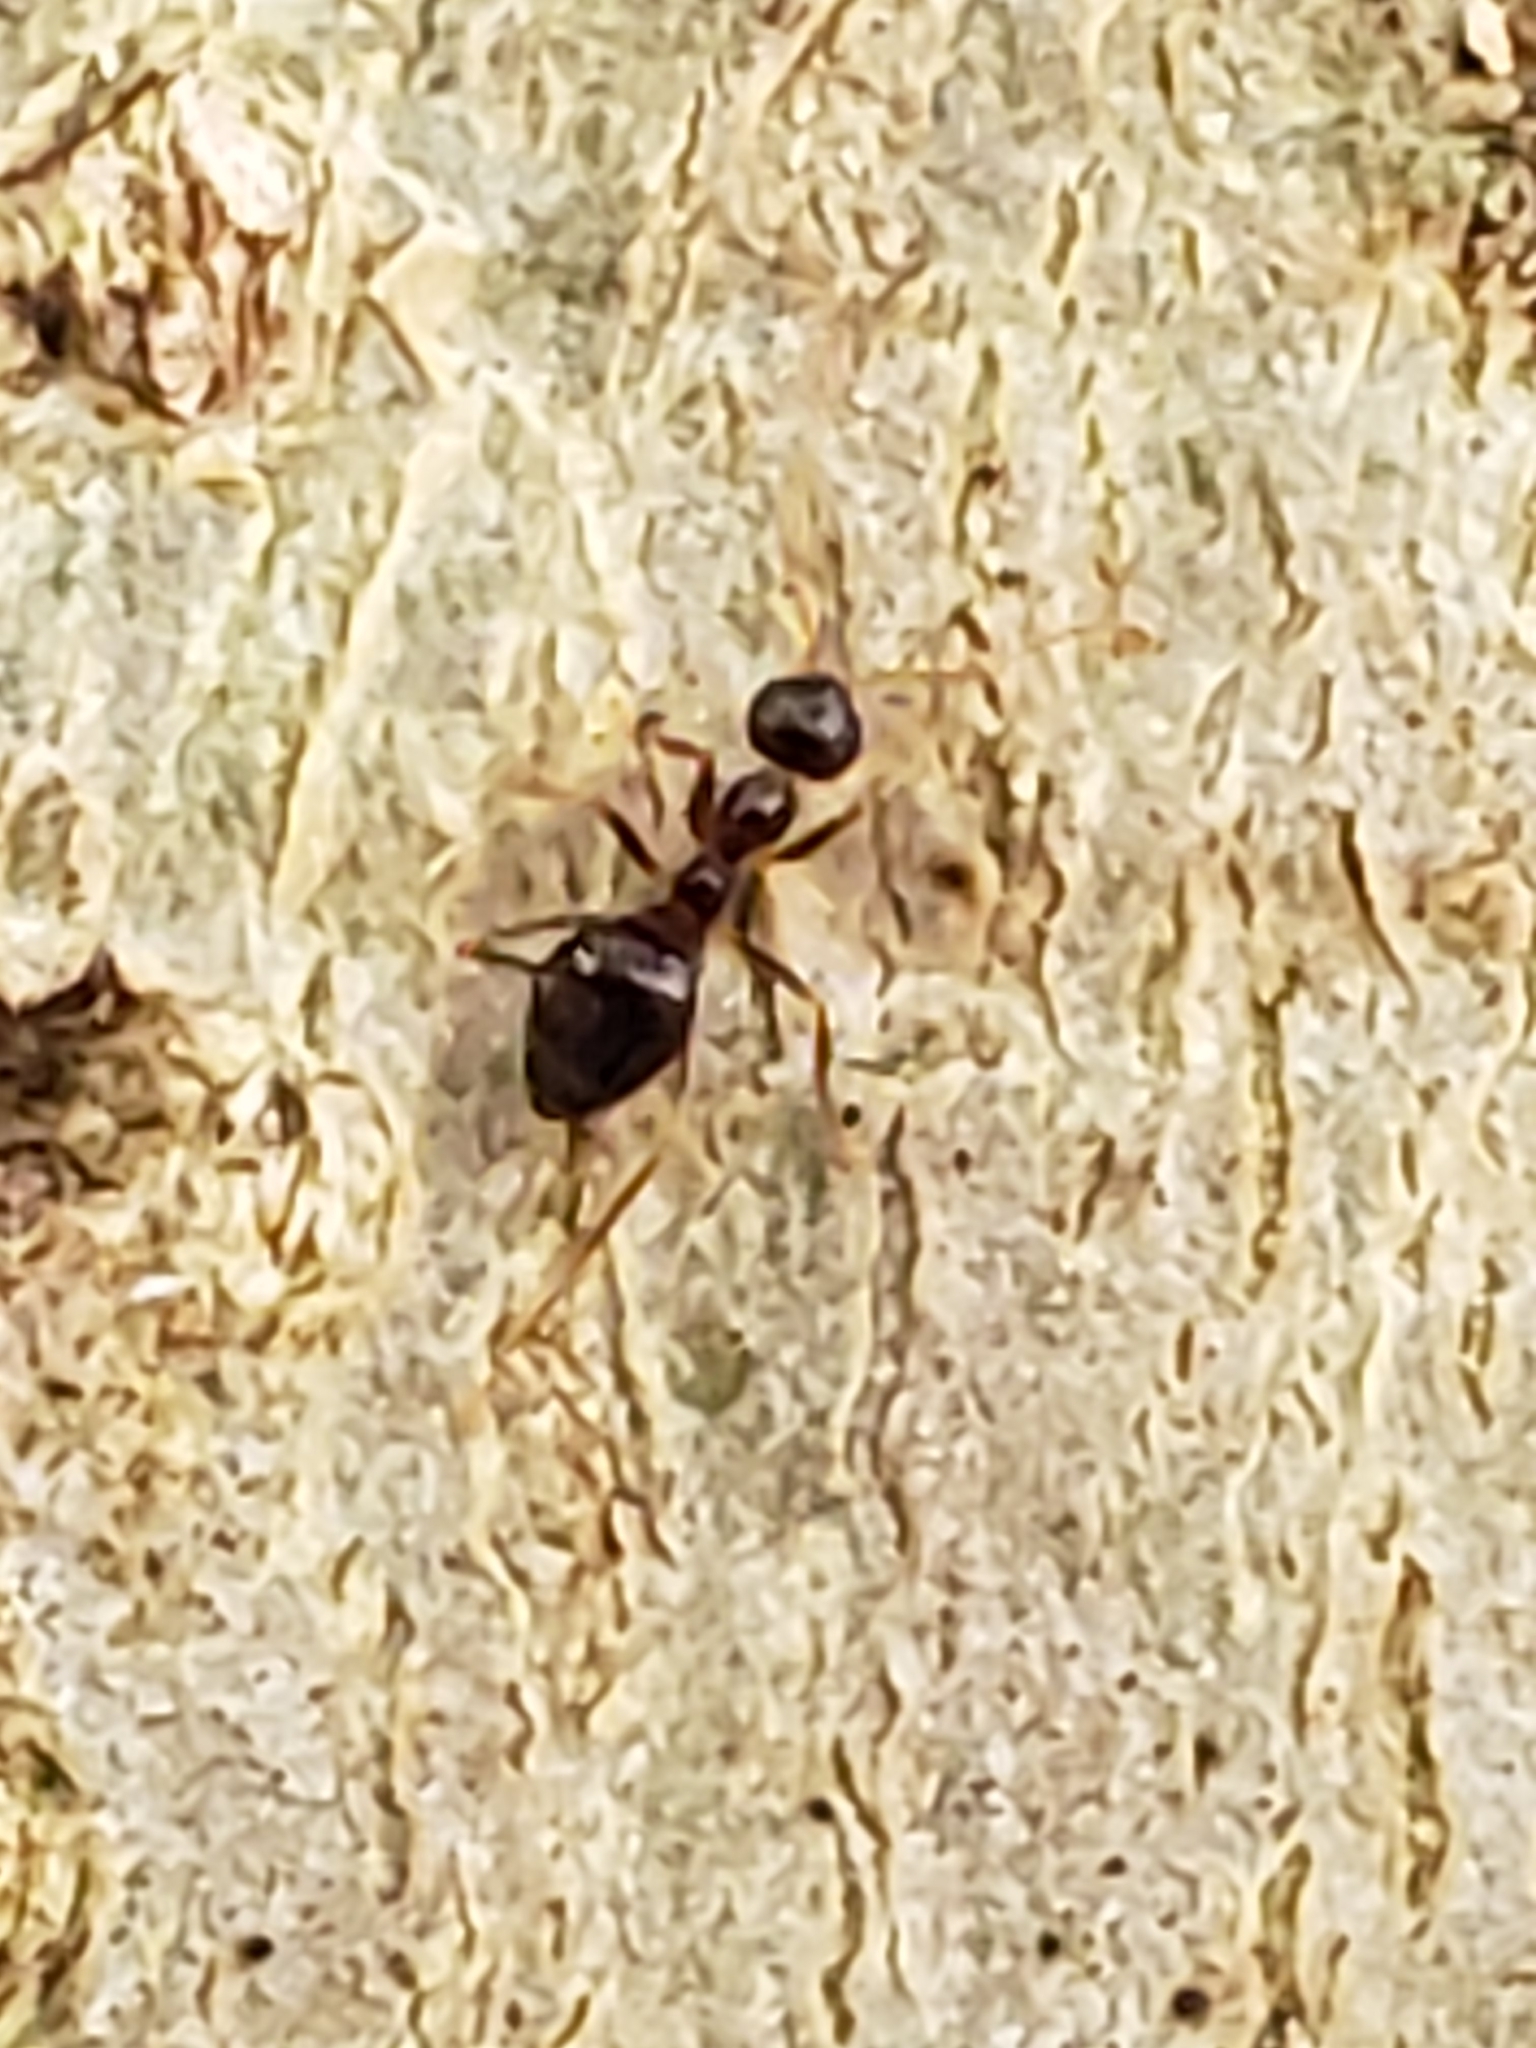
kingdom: Animalia
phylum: Arthropoda
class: Insecta
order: Hymenoptera
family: Formicidae
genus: Prenolepis
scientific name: Prenolepis imparis
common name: Small honey ant
